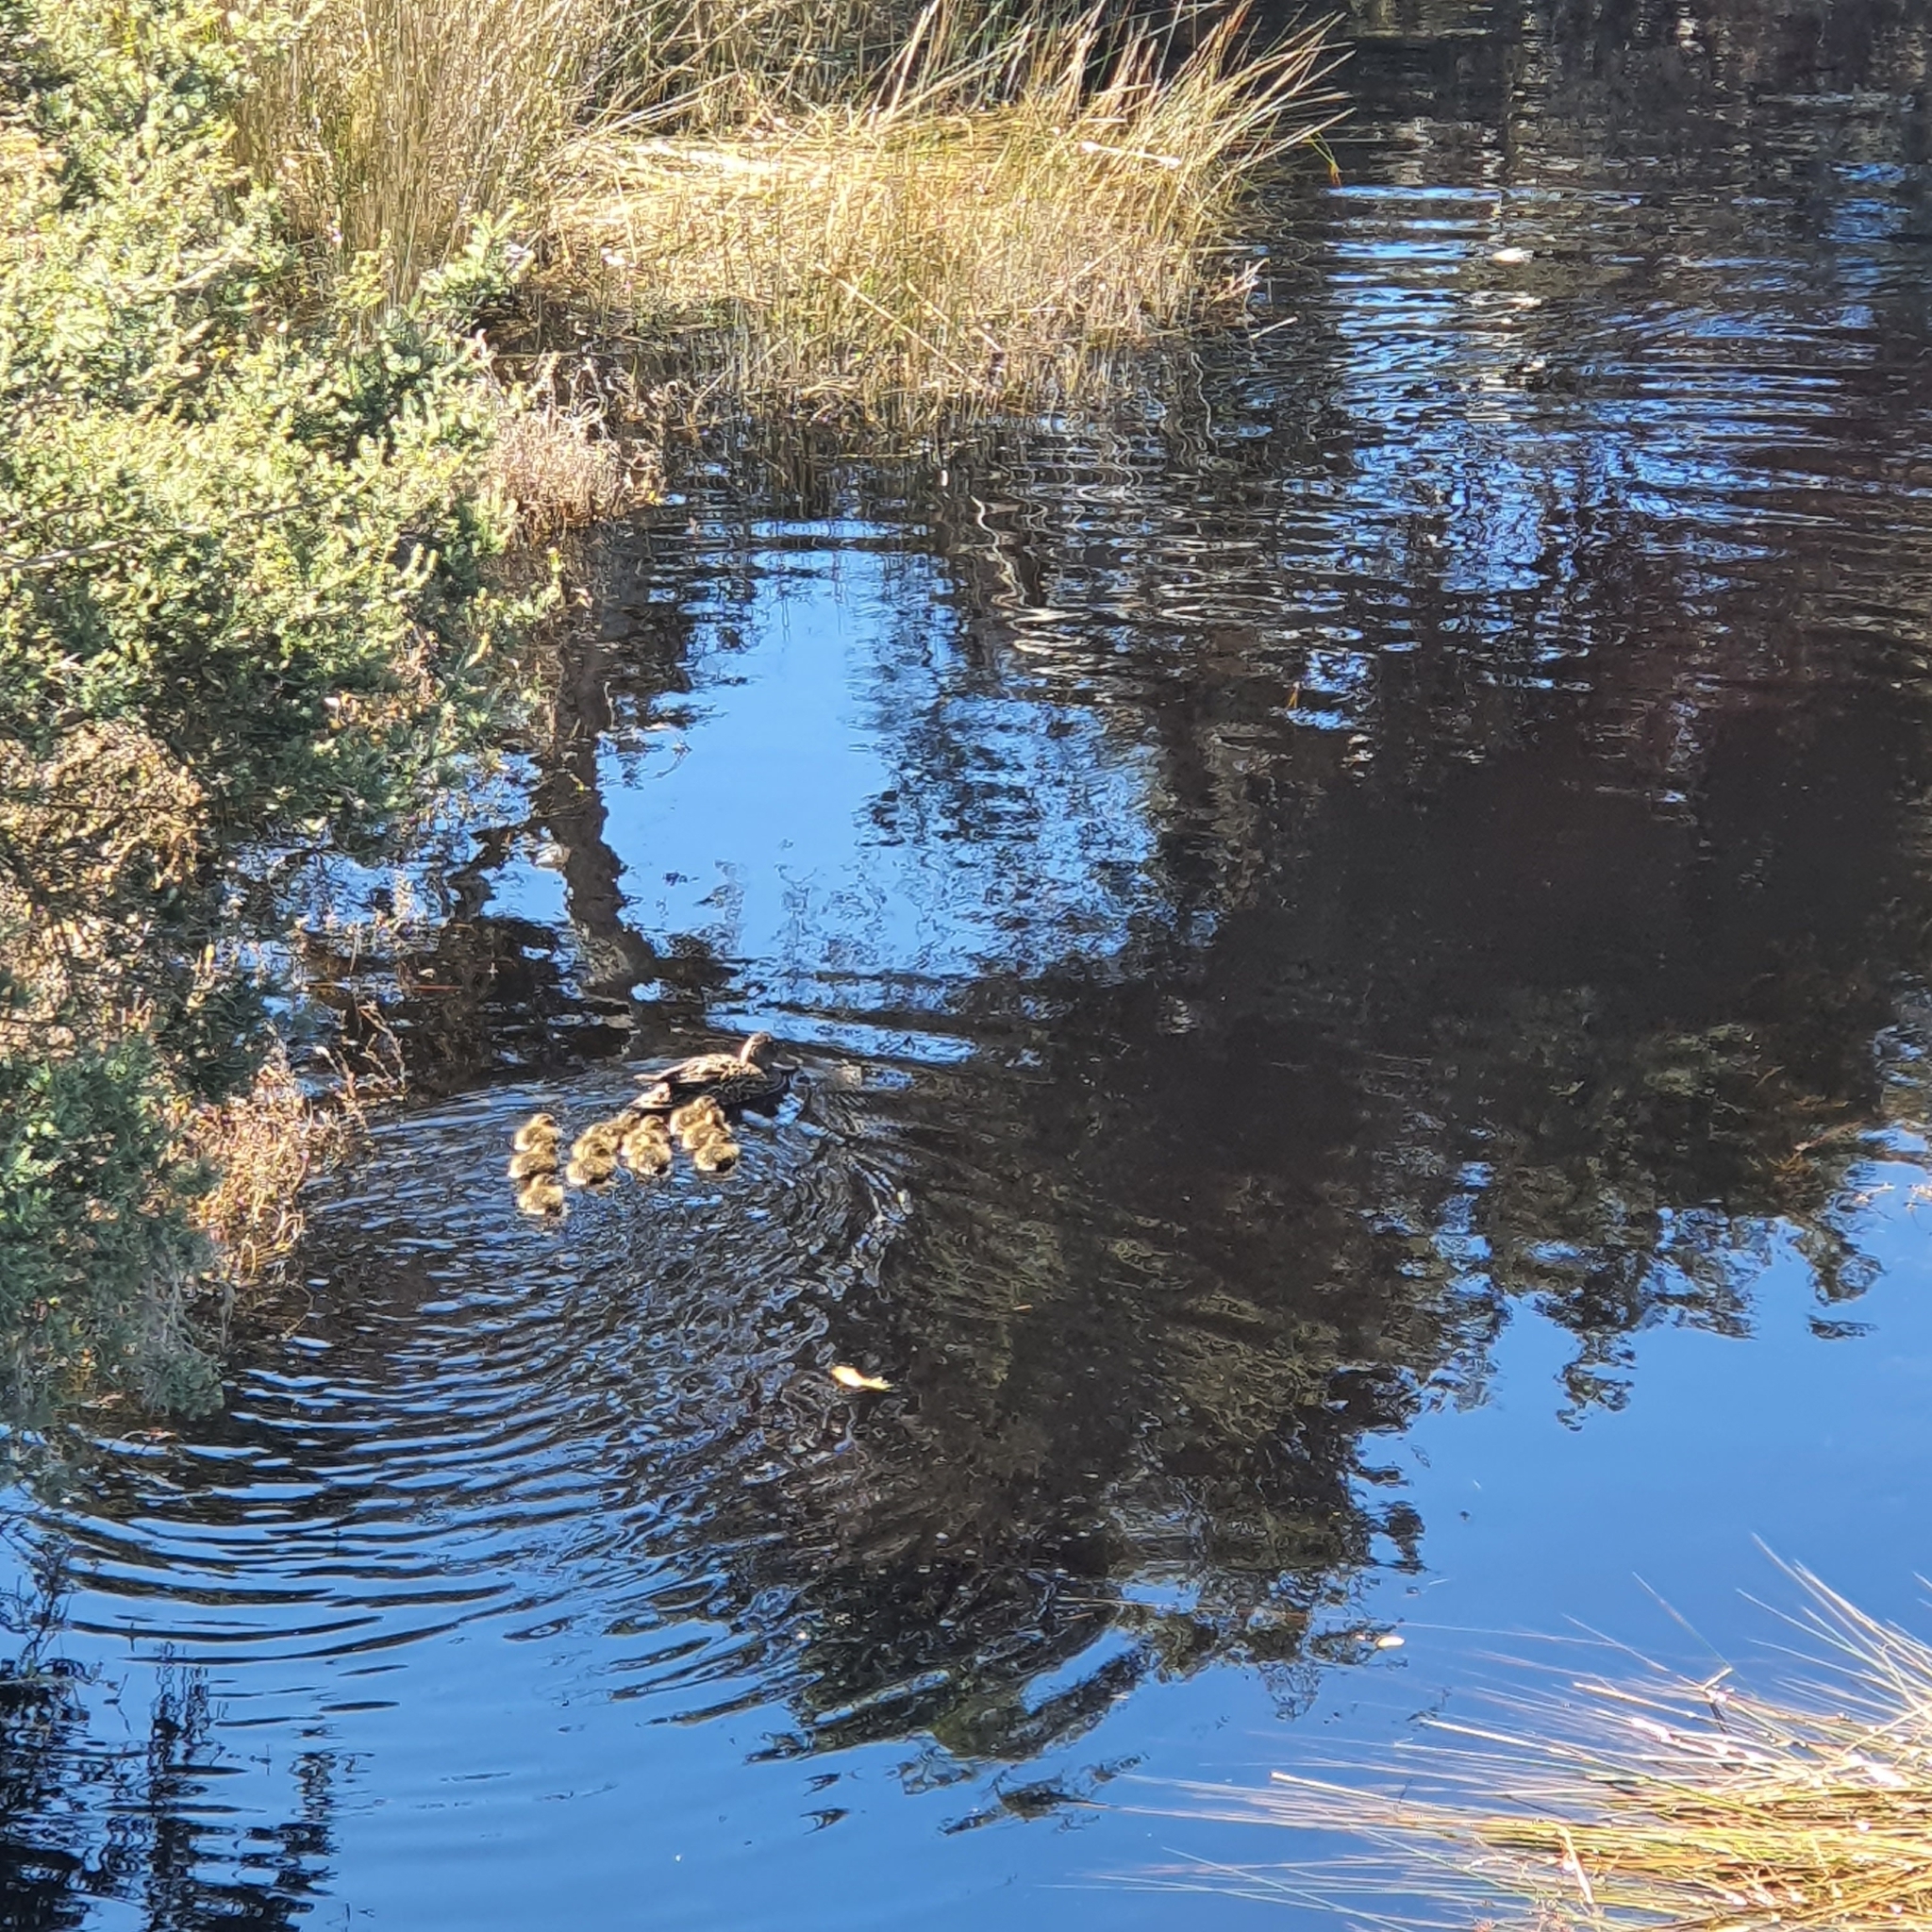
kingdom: Animalia
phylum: Chordata
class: Aves
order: Anseriformes
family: Anatidae
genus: Spatula
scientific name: Spatula rhynchotis
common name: Australian shoveler
